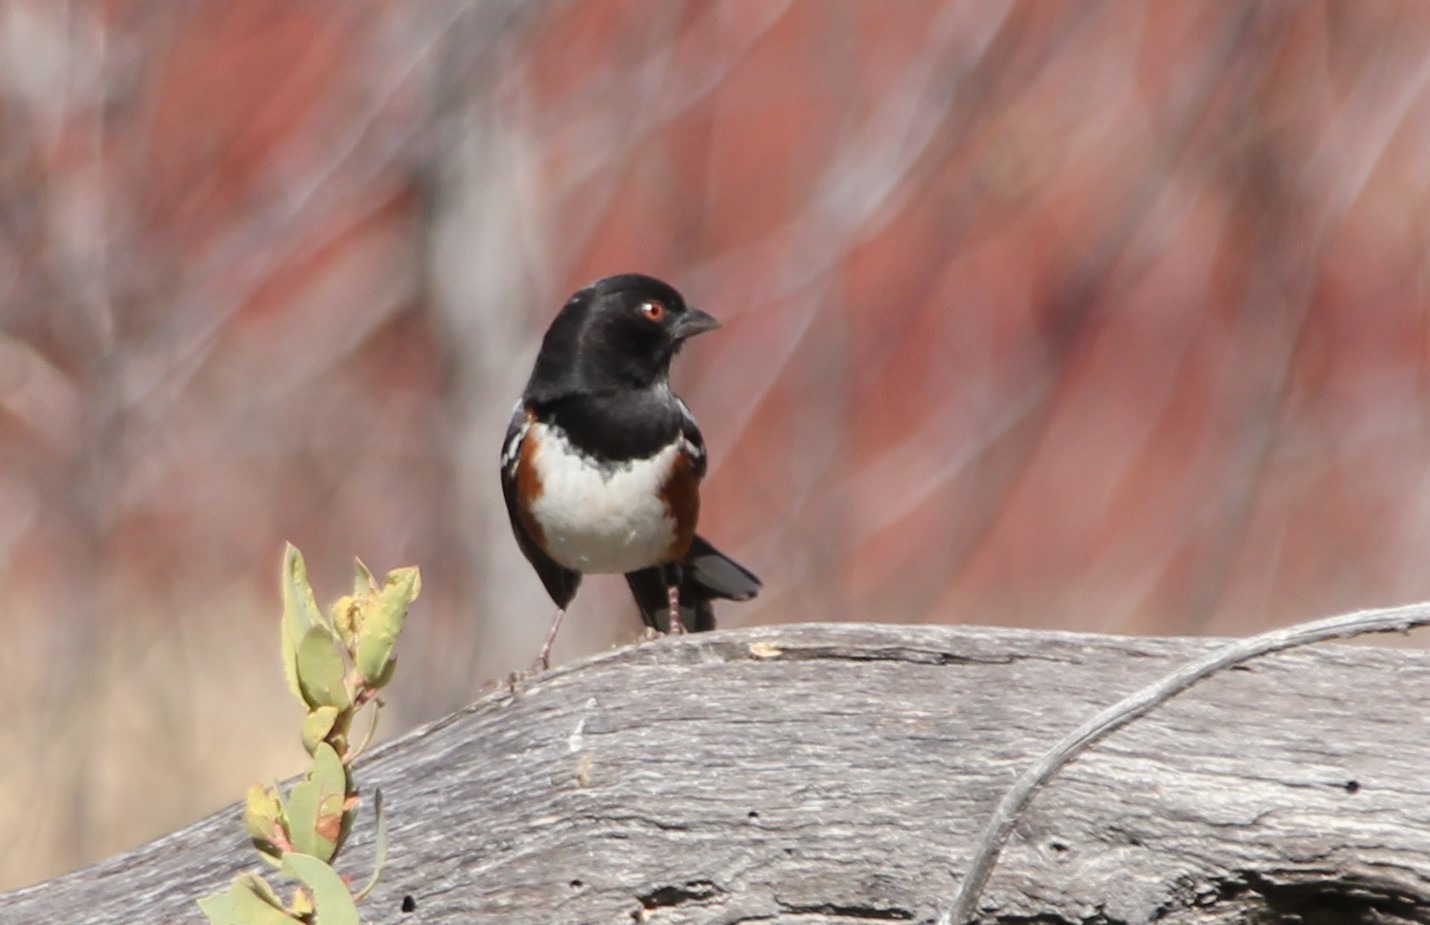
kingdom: Animalia
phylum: Chordata
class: Aves
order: Passeriformes
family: Passerellidae
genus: Pipilo
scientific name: Pipilo maculatus
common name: Spotted towhee
